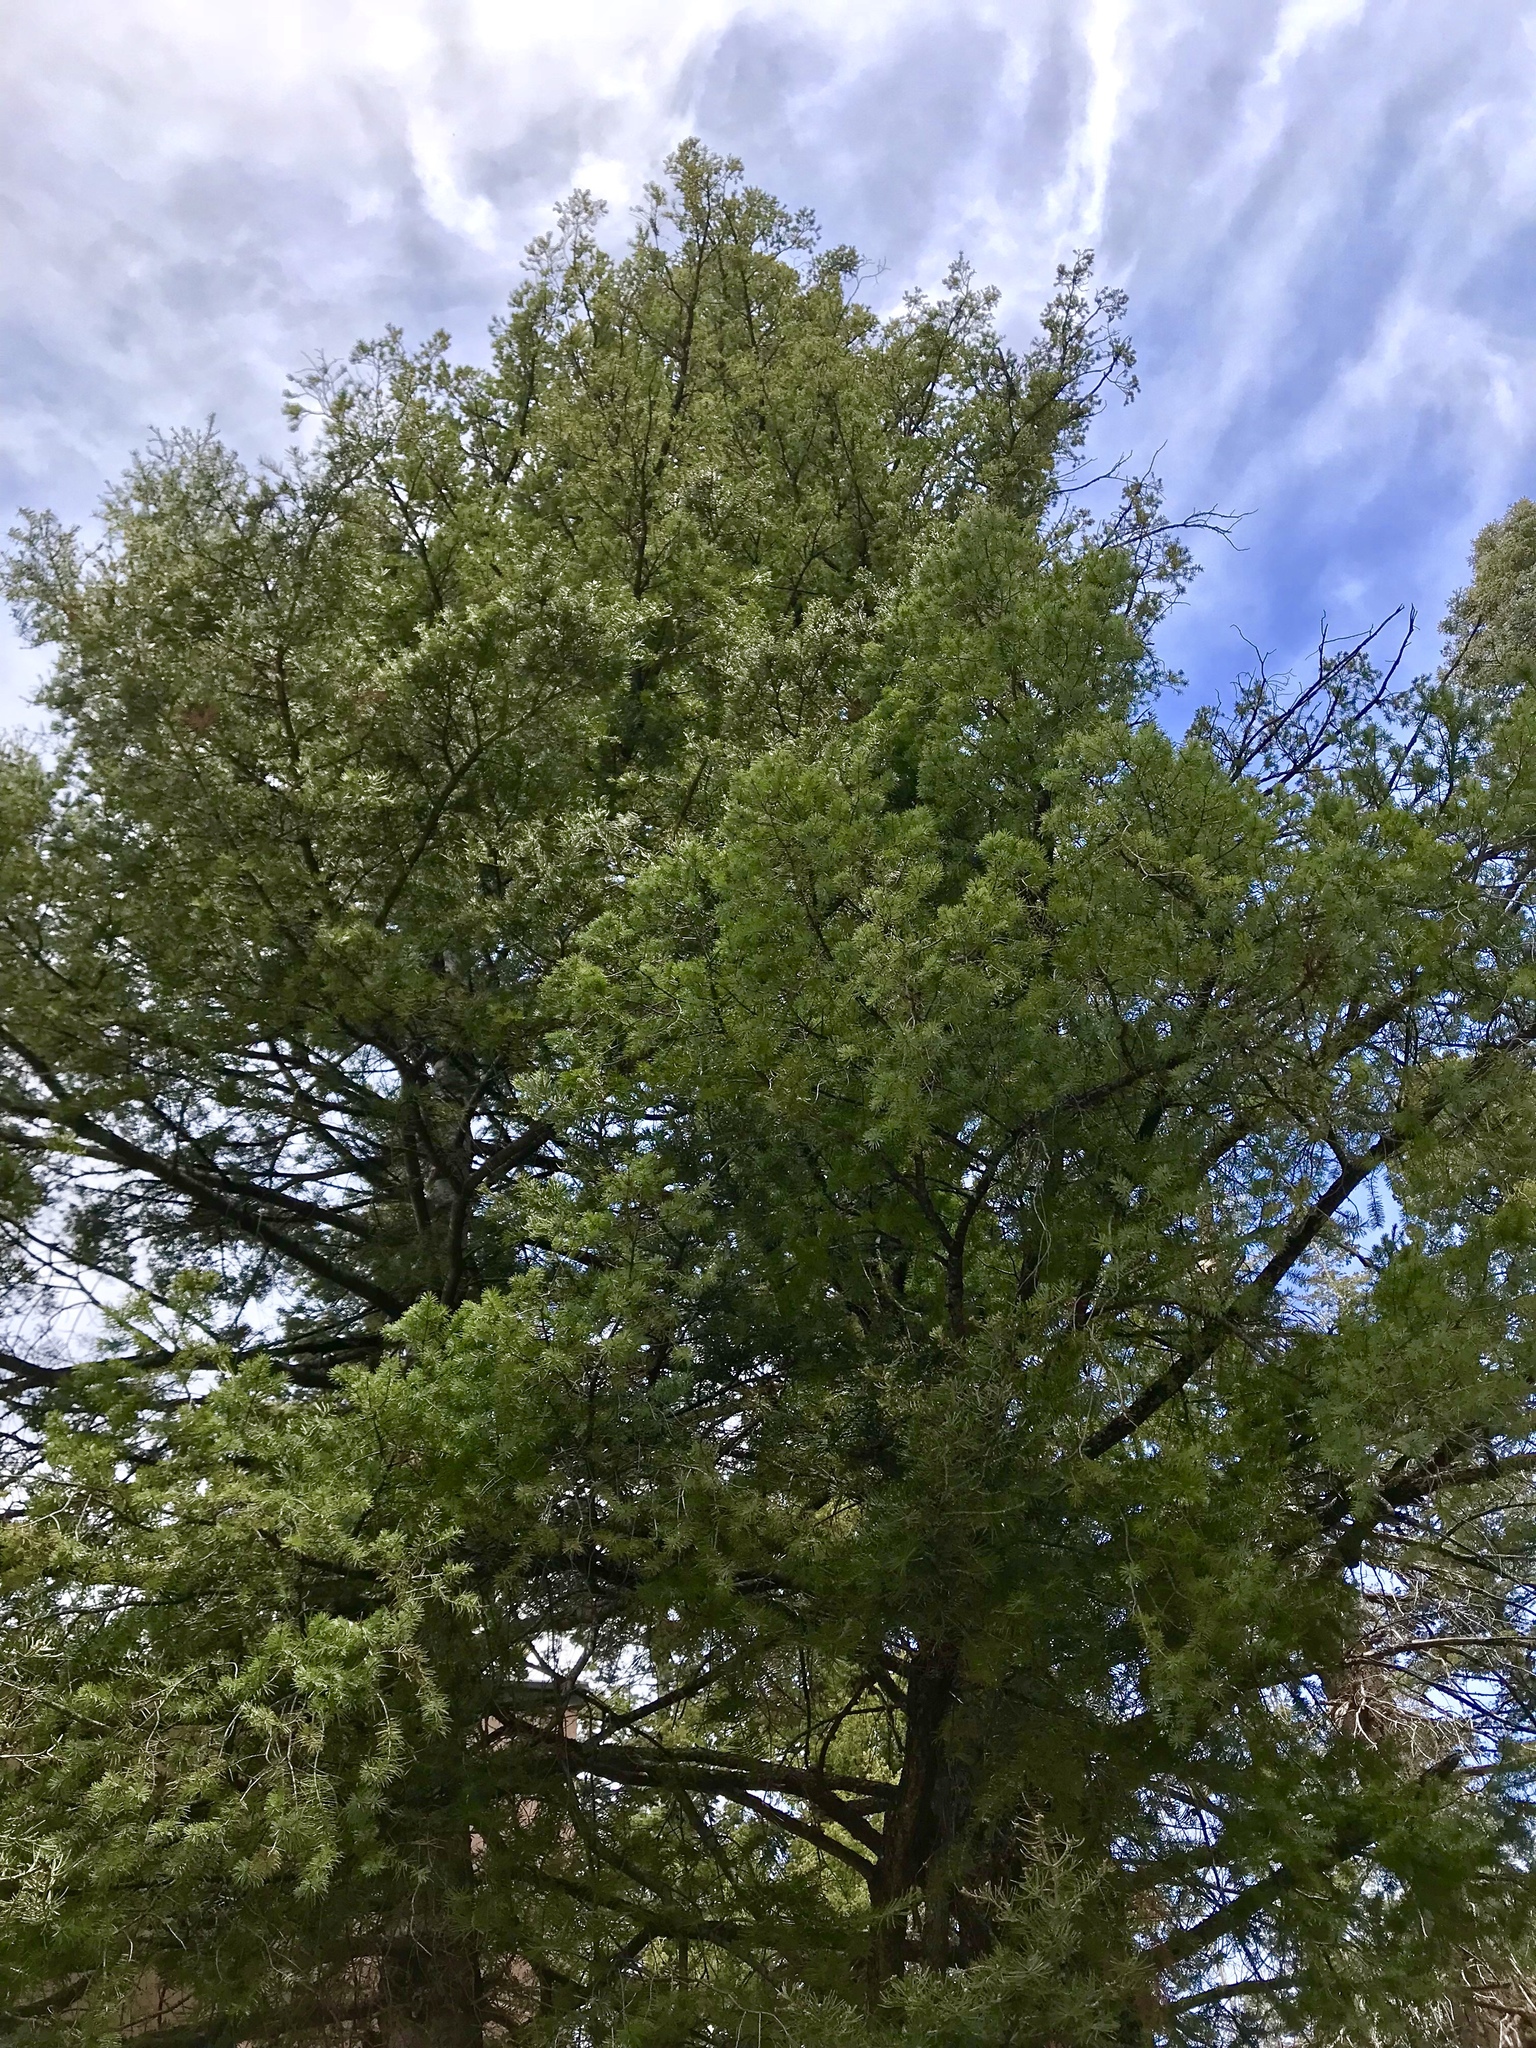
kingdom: Plantae
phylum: Tracheophyta
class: Pinopsida
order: Pinales
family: Pinaceae
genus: Pseudotsuga
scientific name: Pseudotsuga menziesii
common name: Douglas fir
